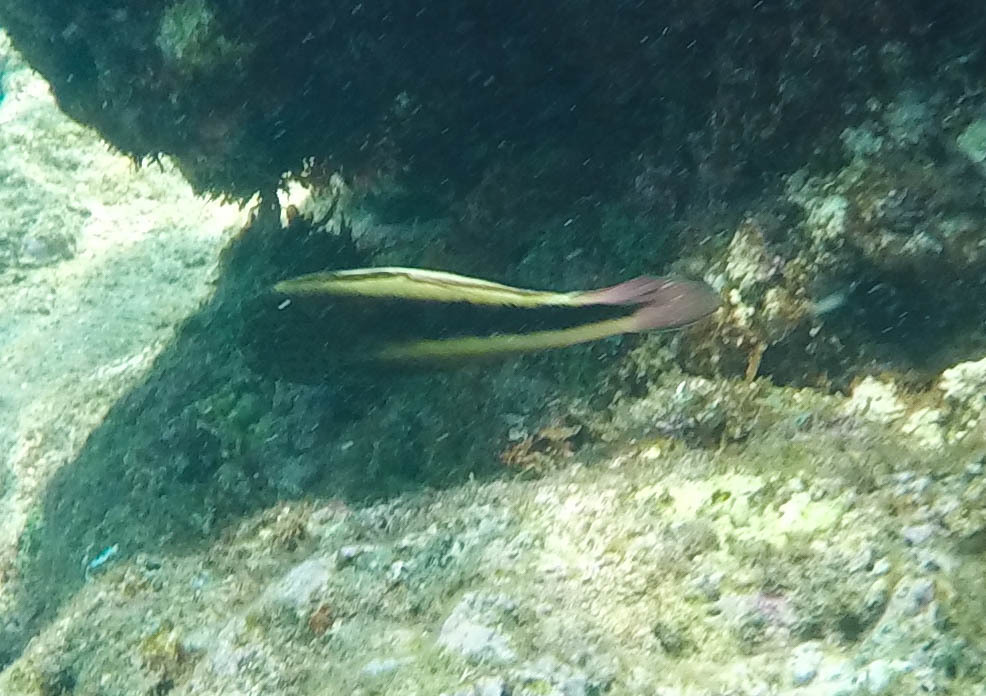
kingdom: Animalia
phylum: Chordata
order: Perciformes
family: Cirrhitidae
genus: Paracirrhites
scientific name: Paracirrhites forsteri
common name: Freckled hawkfish
